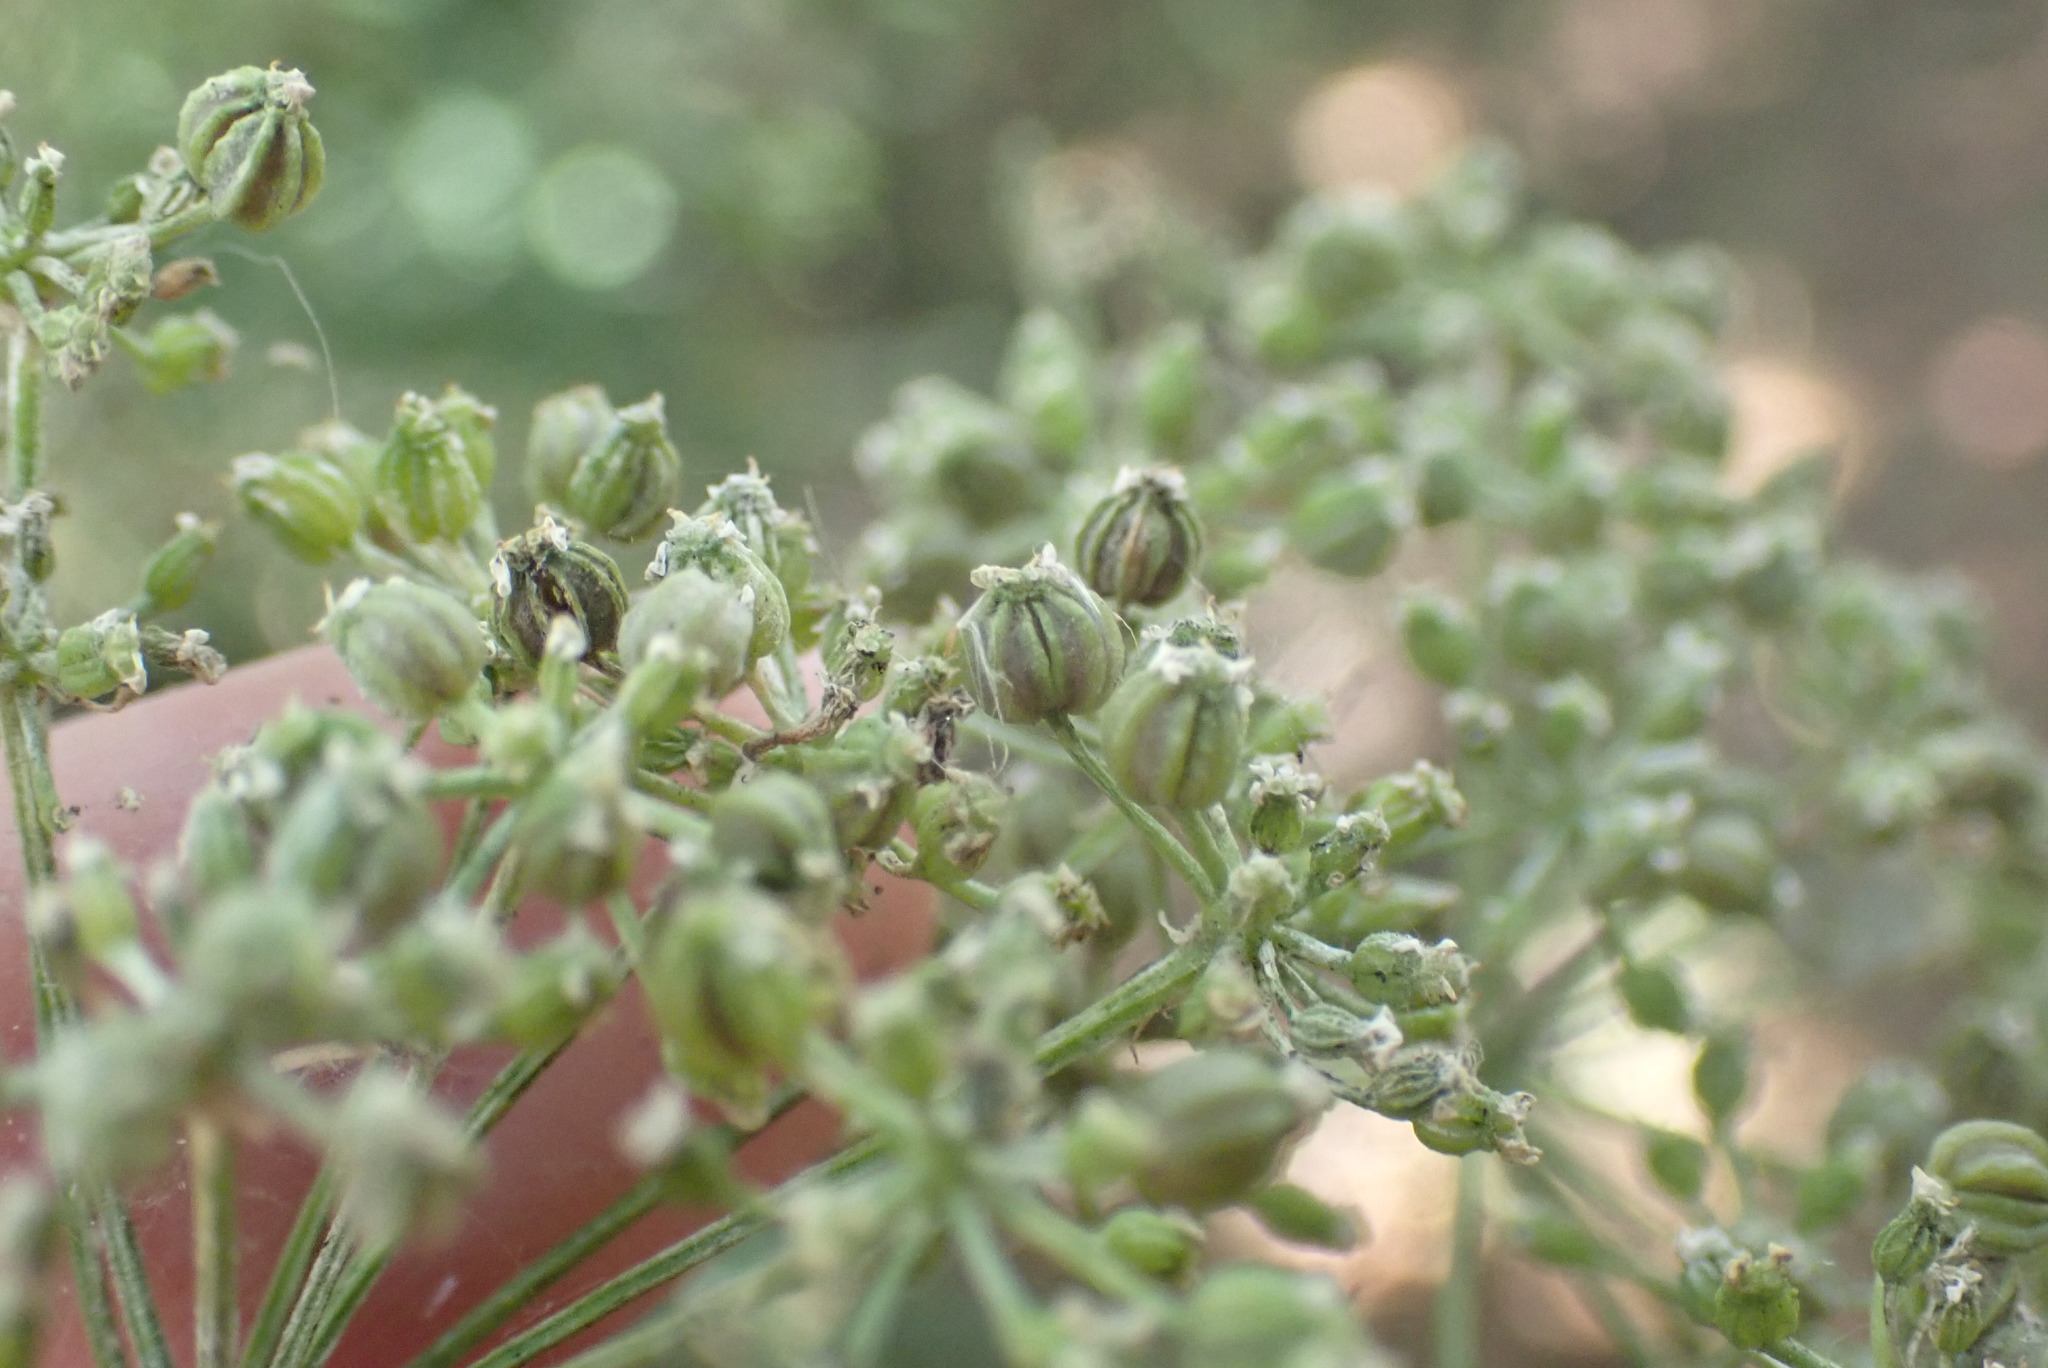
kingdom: Plantae
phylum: Tracheophyta
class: Magnoliopsida
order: Apiales
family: Apiaceae
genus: Conium
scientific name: Conium maculatum
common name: Hemlock
